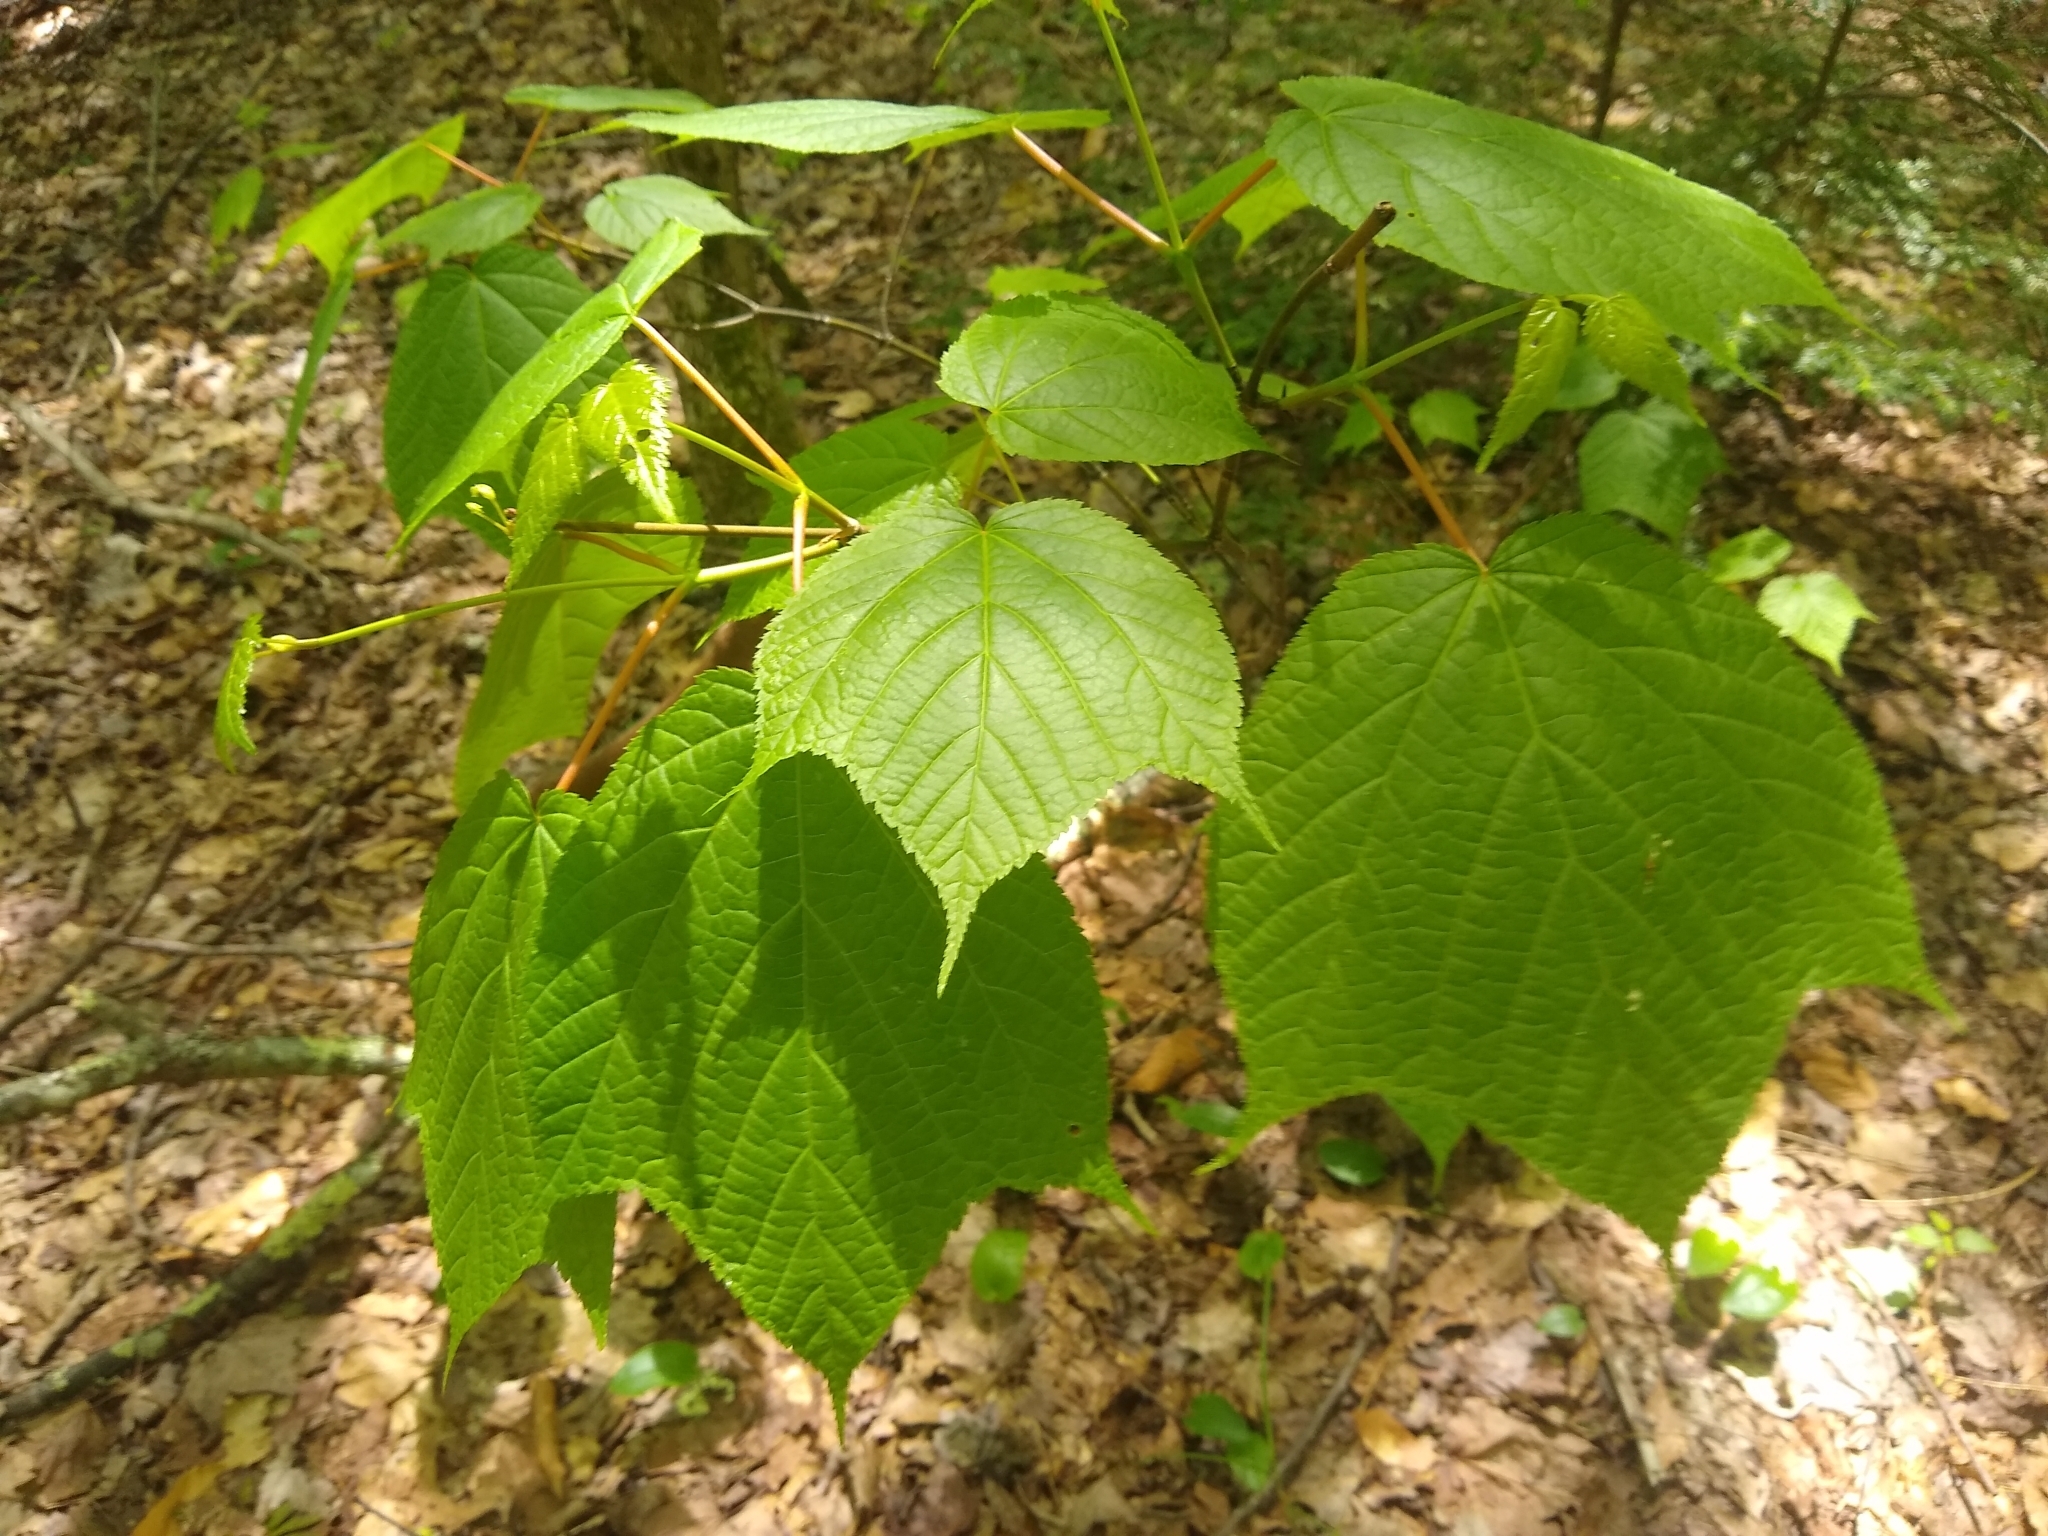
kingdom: Plantae
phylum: Tracheophyta
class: Magnoliopsida
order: Sapindales
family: Sapindaceae
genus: Acer
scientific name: Acer pensylvanicum
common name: Moosewood
